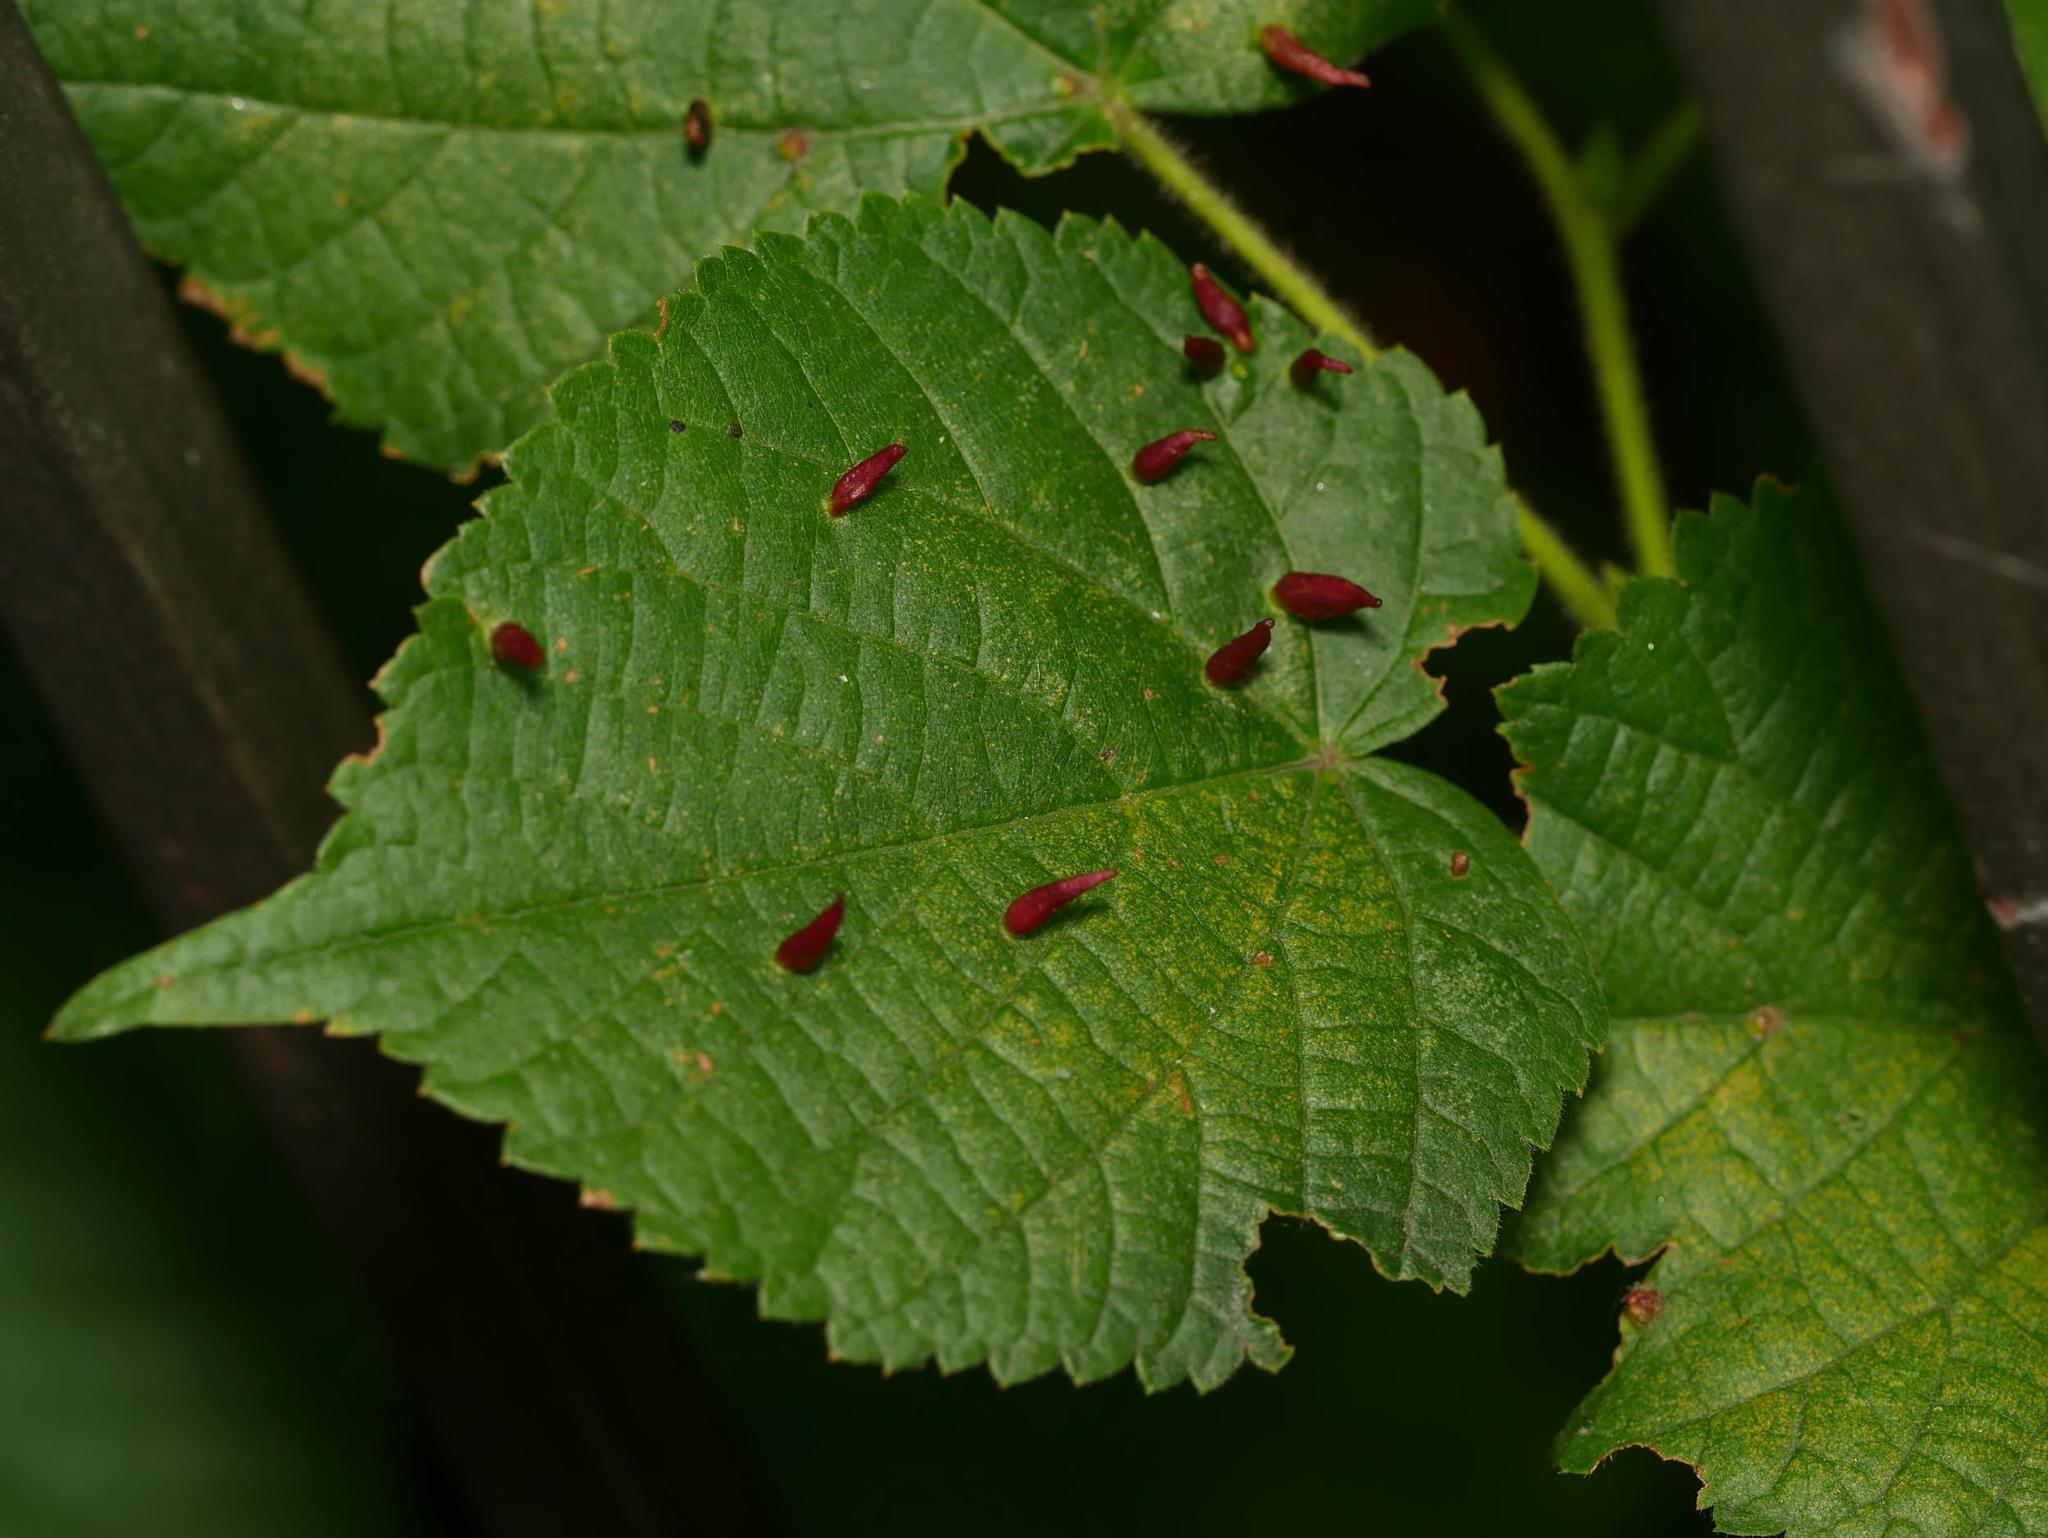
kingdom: Animalia
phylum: Arthropoda
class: Arachnida
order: Trombidiformes
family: Eriophyidae
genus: Eriophyes
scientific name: Eriophyes tiliae
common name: Red nail gall mite
